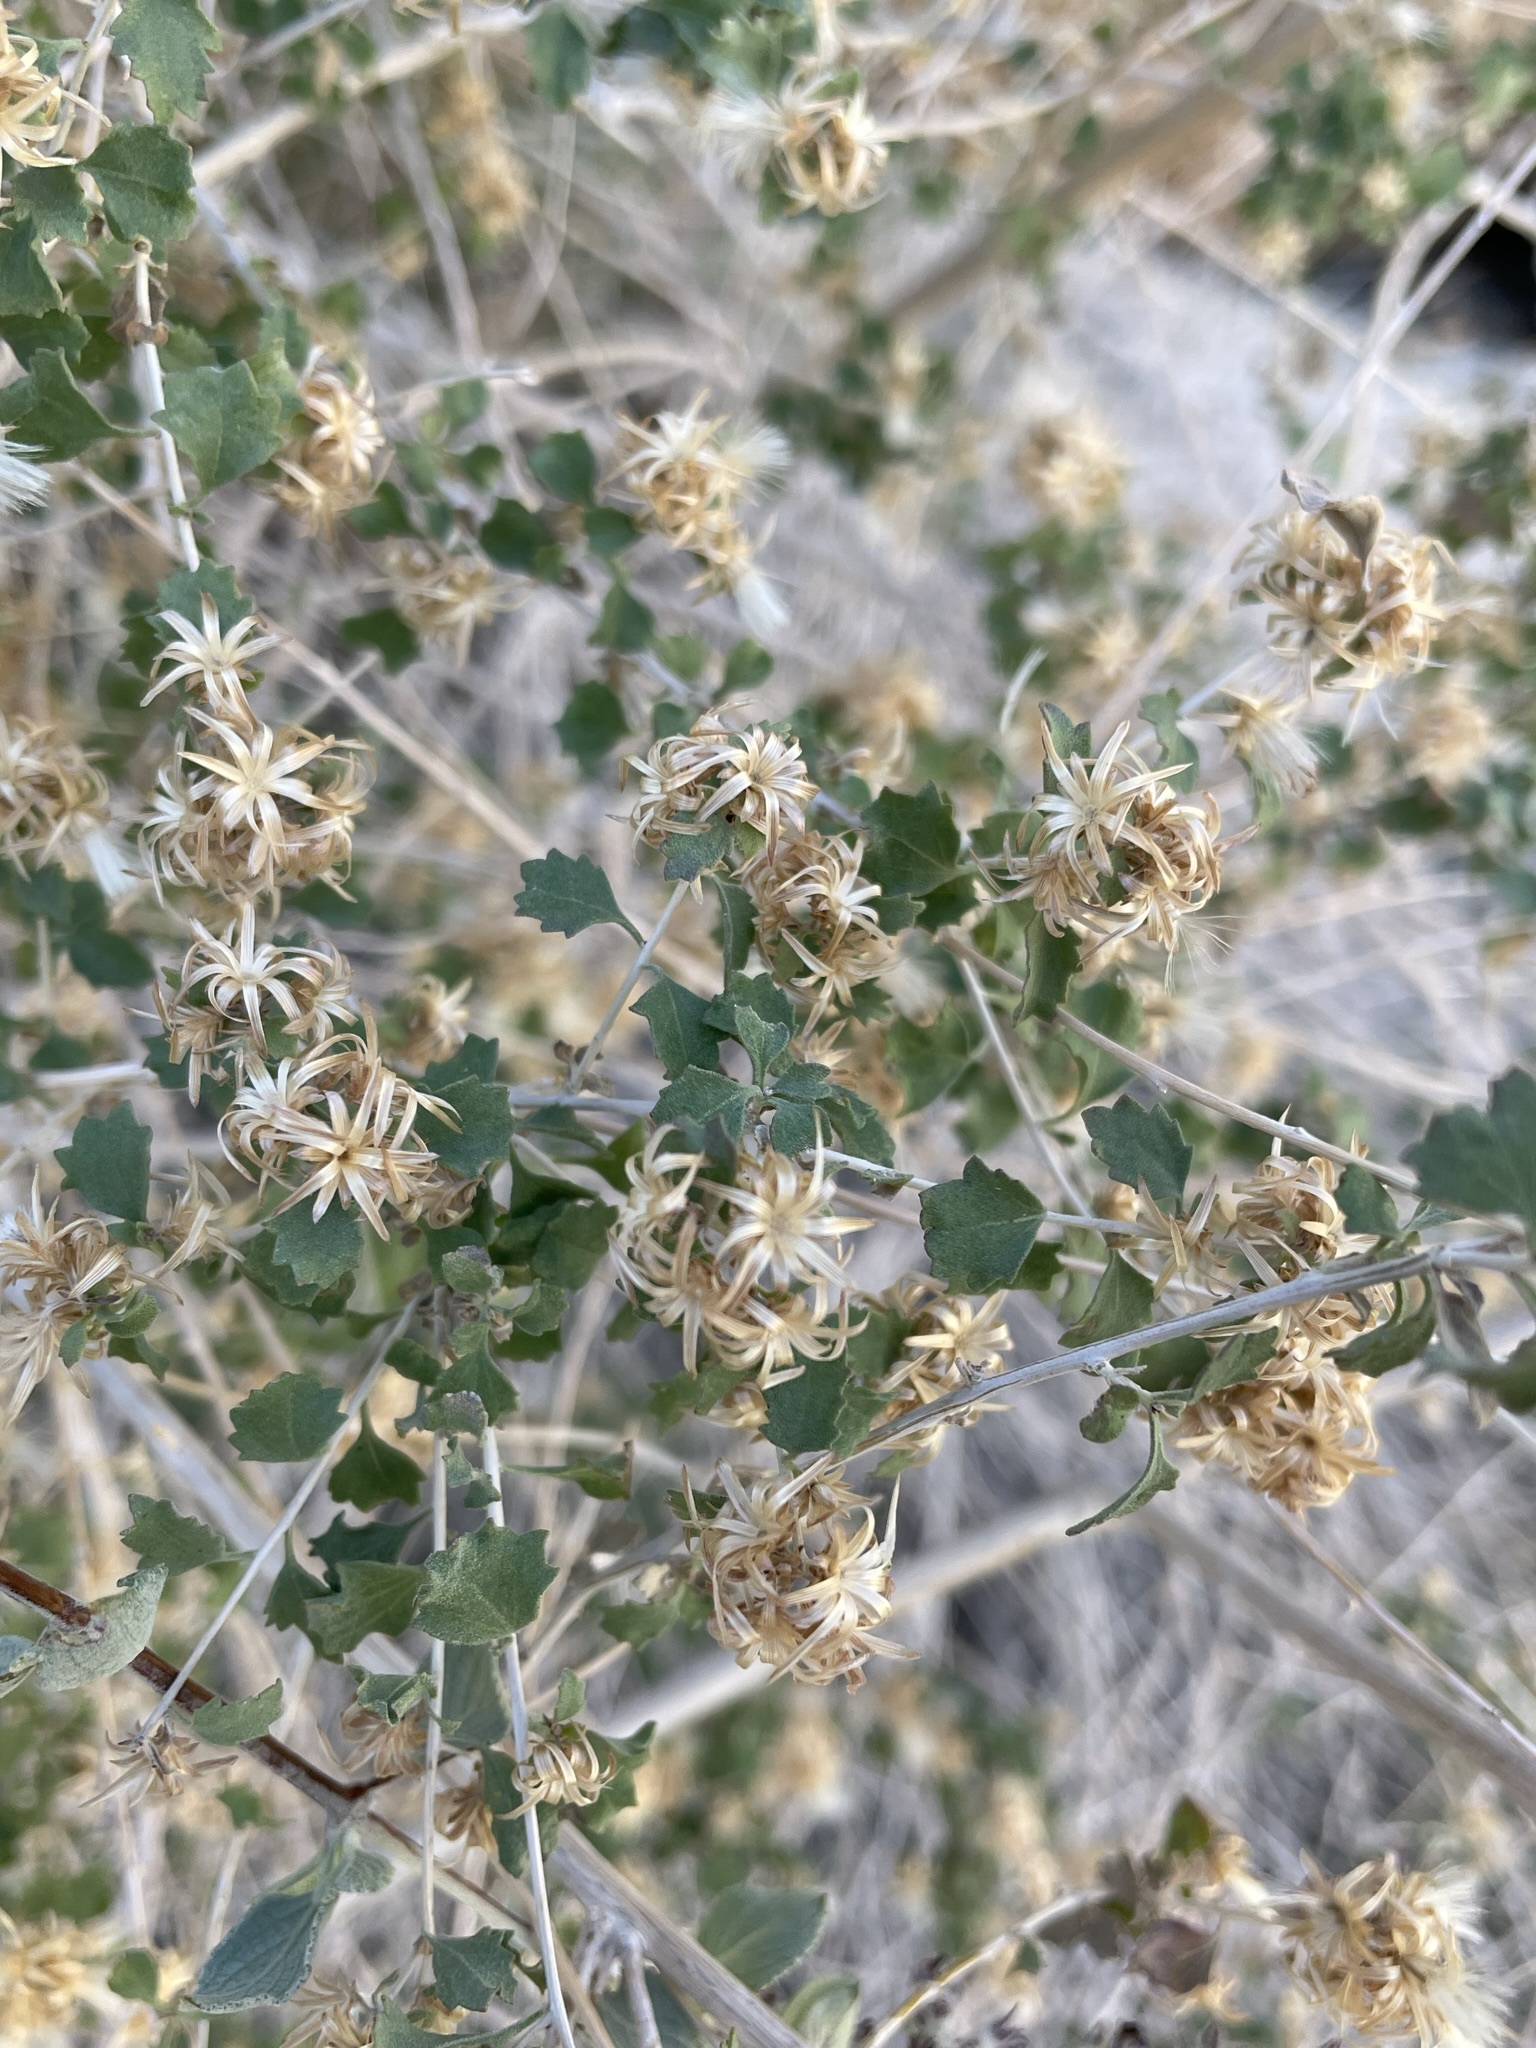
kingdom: Plantae
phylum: Tracheophyta
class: Magnoliopsida
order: Asterales
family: Asteraceae
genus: Brickellia
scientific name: Brickellia desertorum
